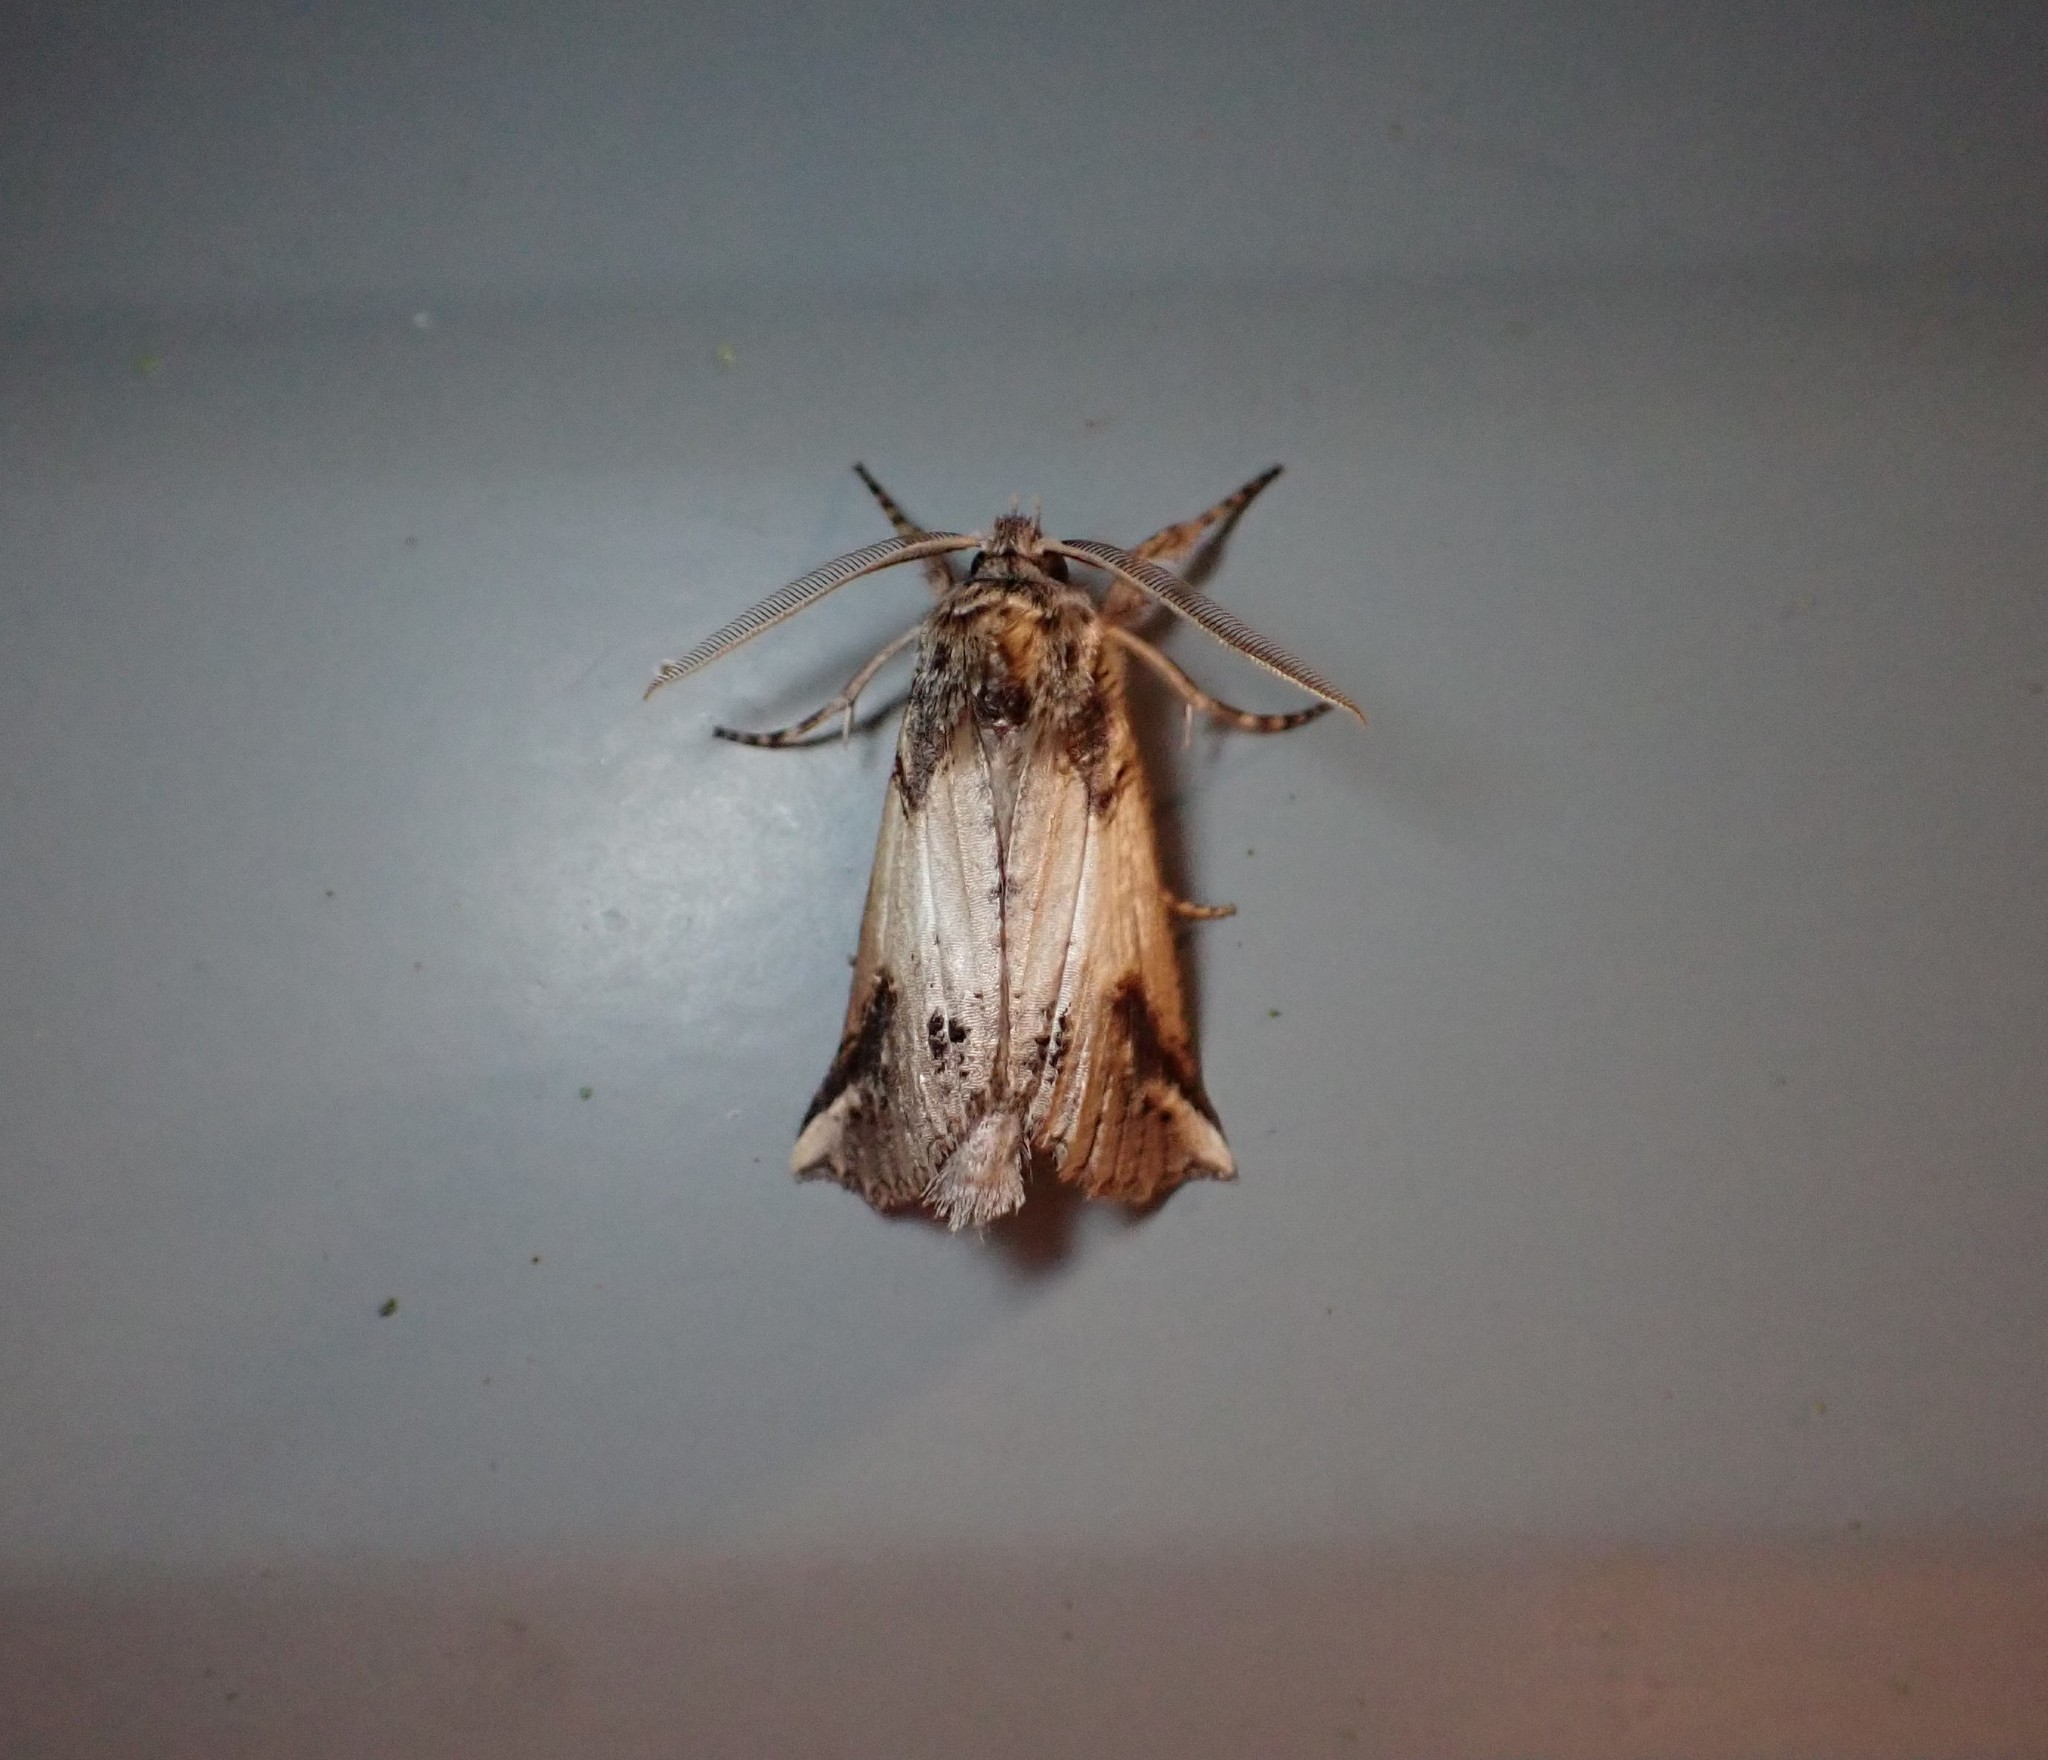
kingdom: Animalia
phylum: Arthropoda
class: Insecta
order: Lepidoptera
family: Geometridae
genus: Declana
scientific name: Declana
